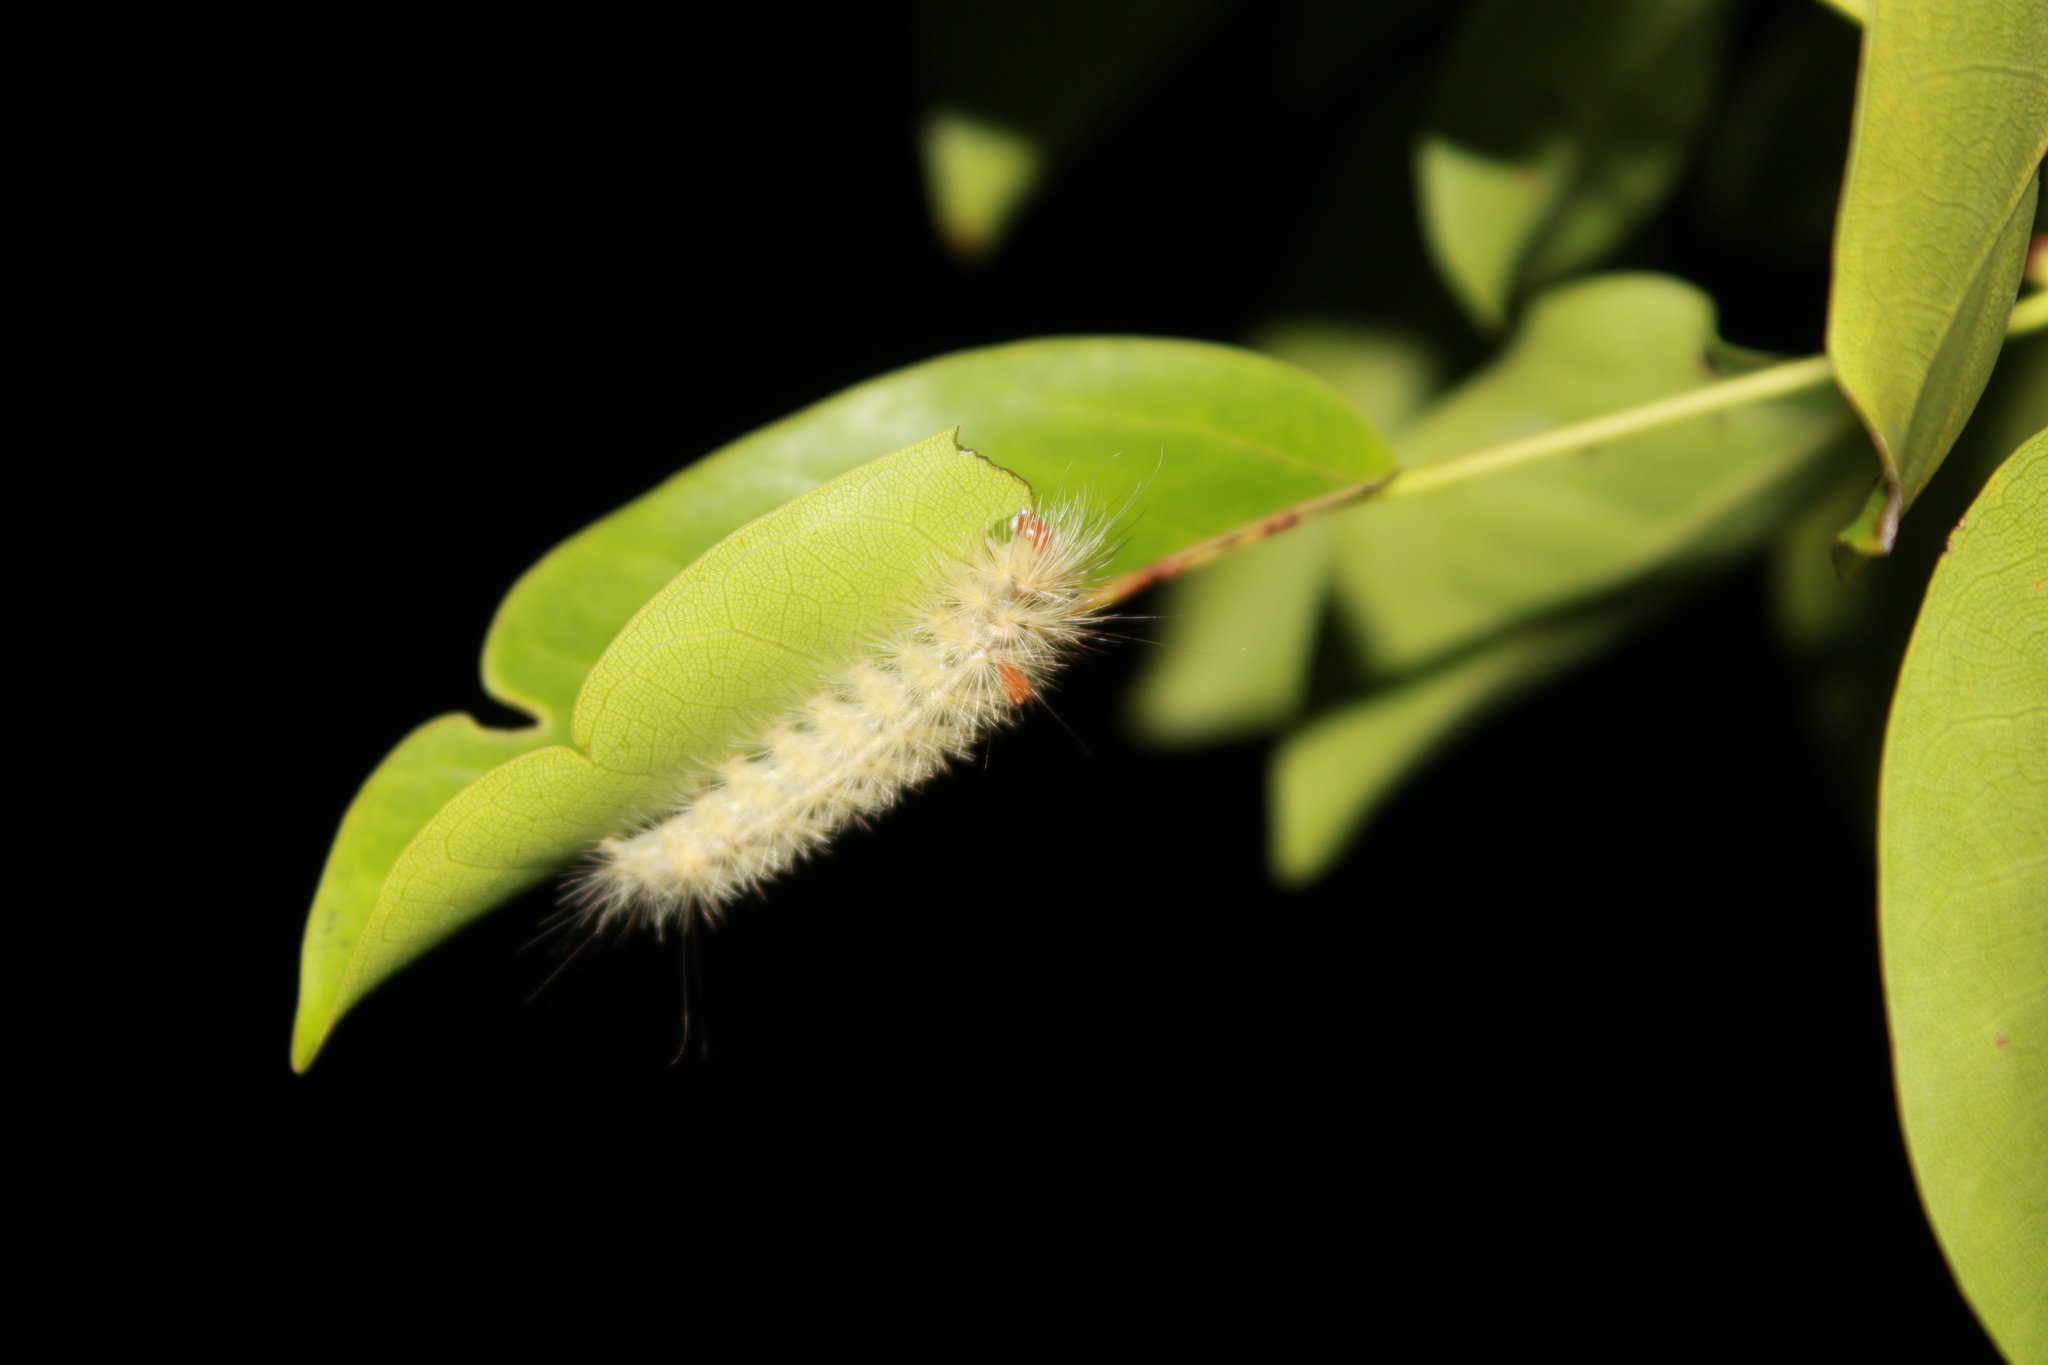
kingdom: Animalia
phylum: Arthropoda
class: Insecta
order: Lepidoptera
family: Erebidae
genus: Lymire
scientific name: Lymire edwardsii
